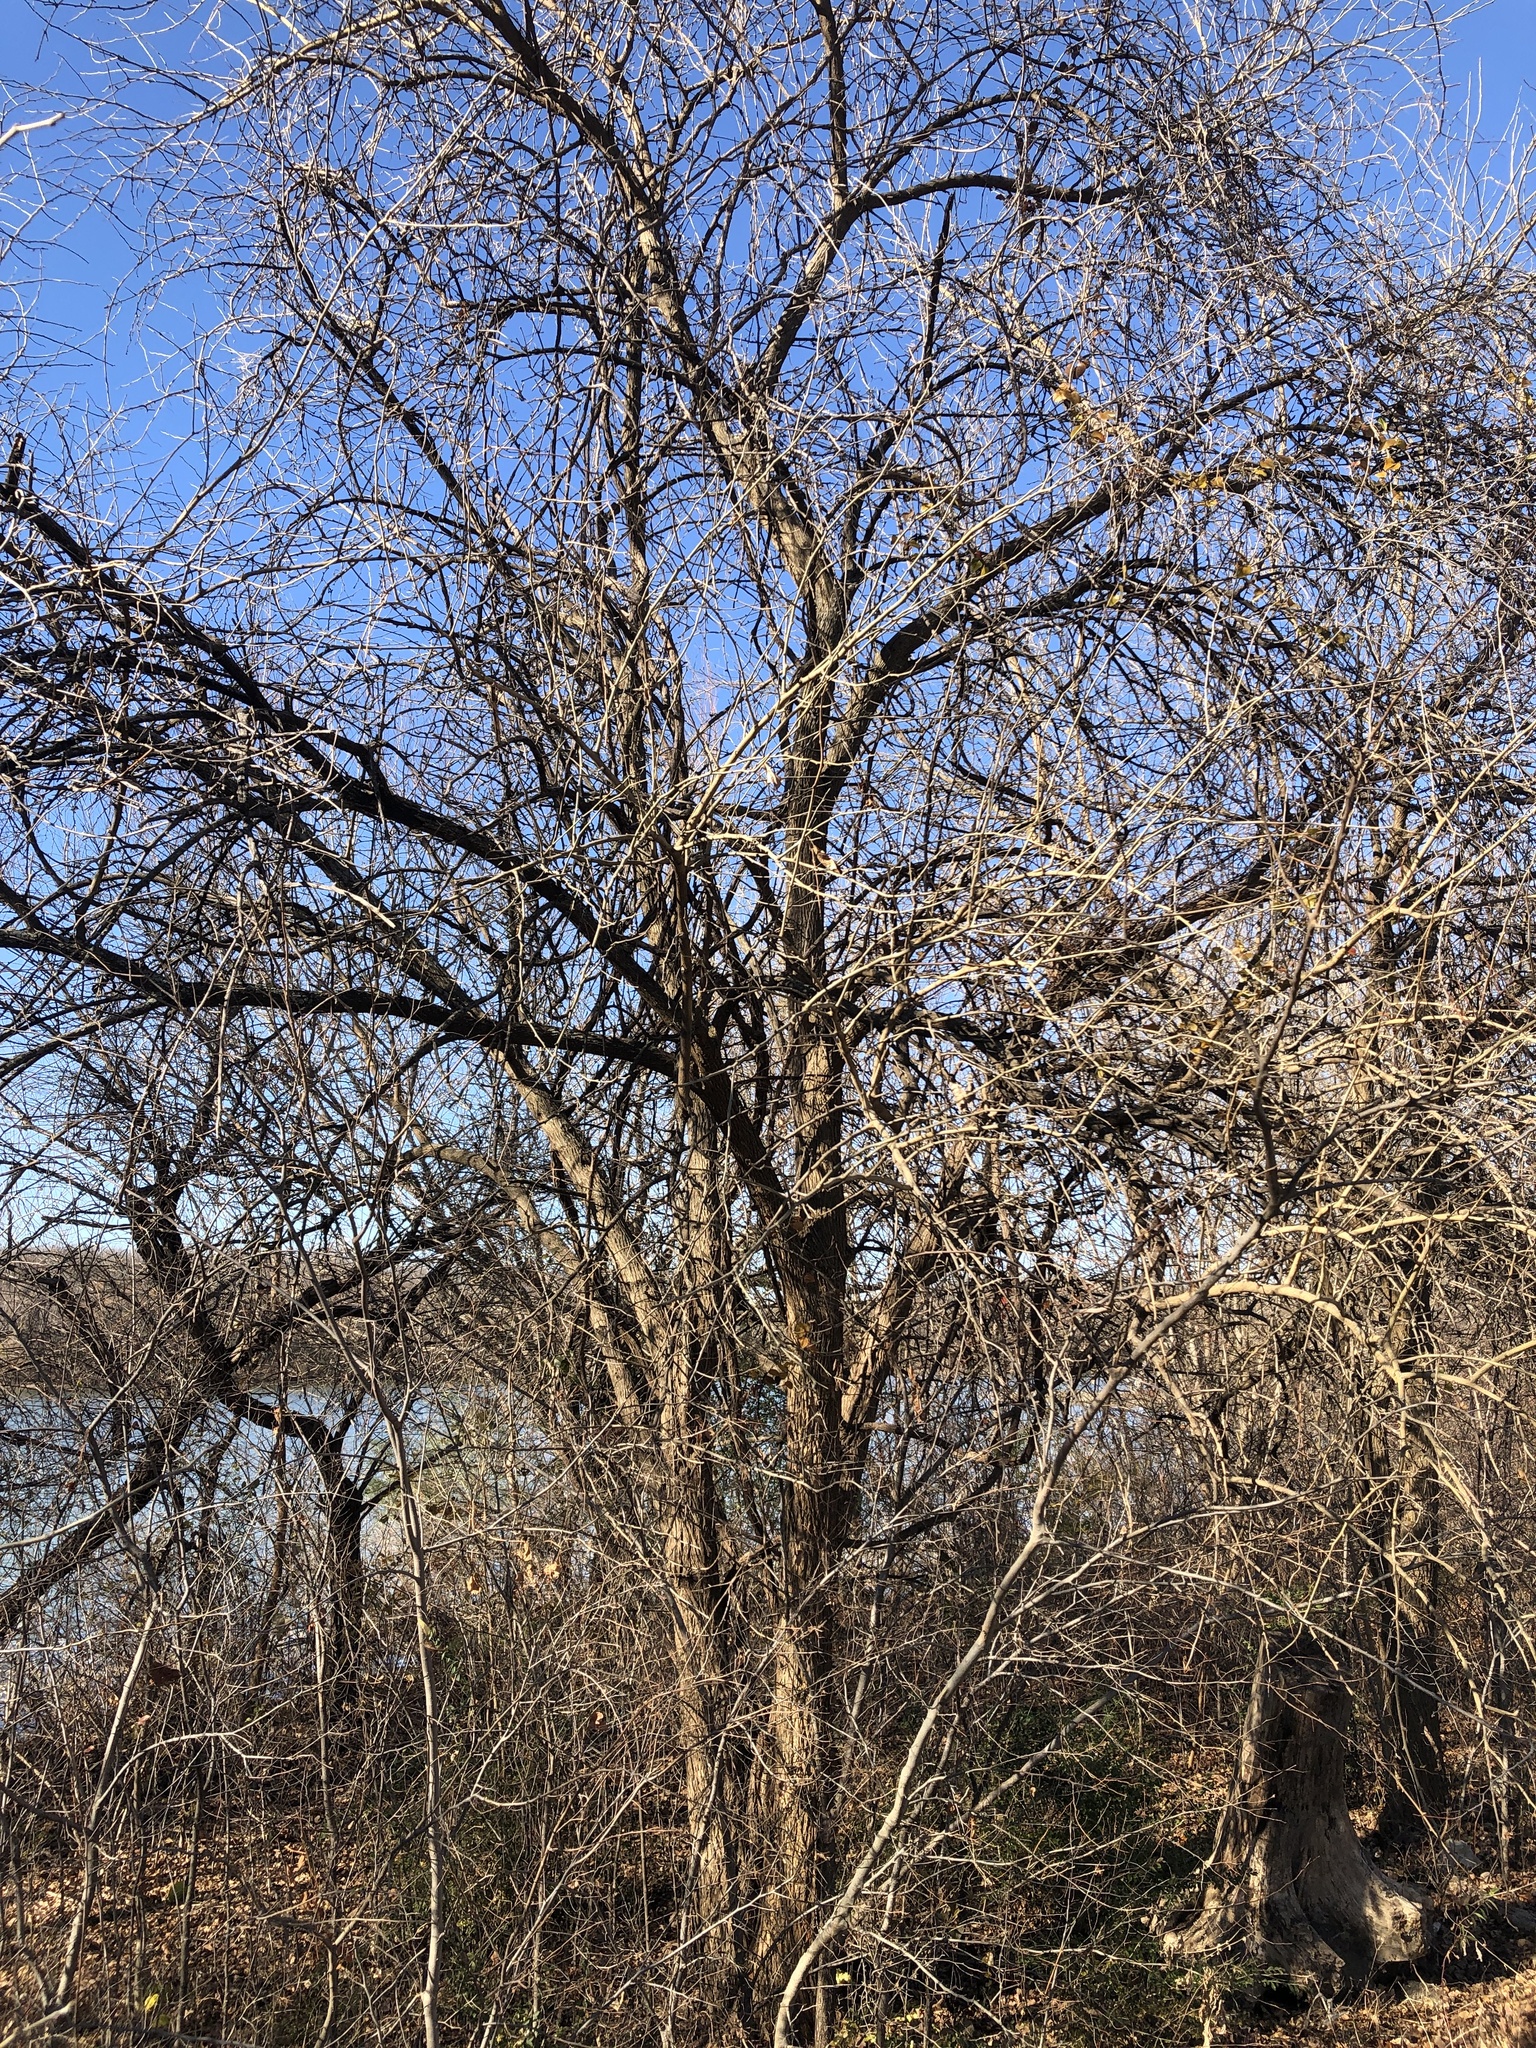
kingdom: Plantae
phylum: Tracheophyta
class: Magnoliopsida
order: Rosales
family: Moraceae
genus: Maclura
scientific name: Maclura pomifera
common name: Osage-orange
